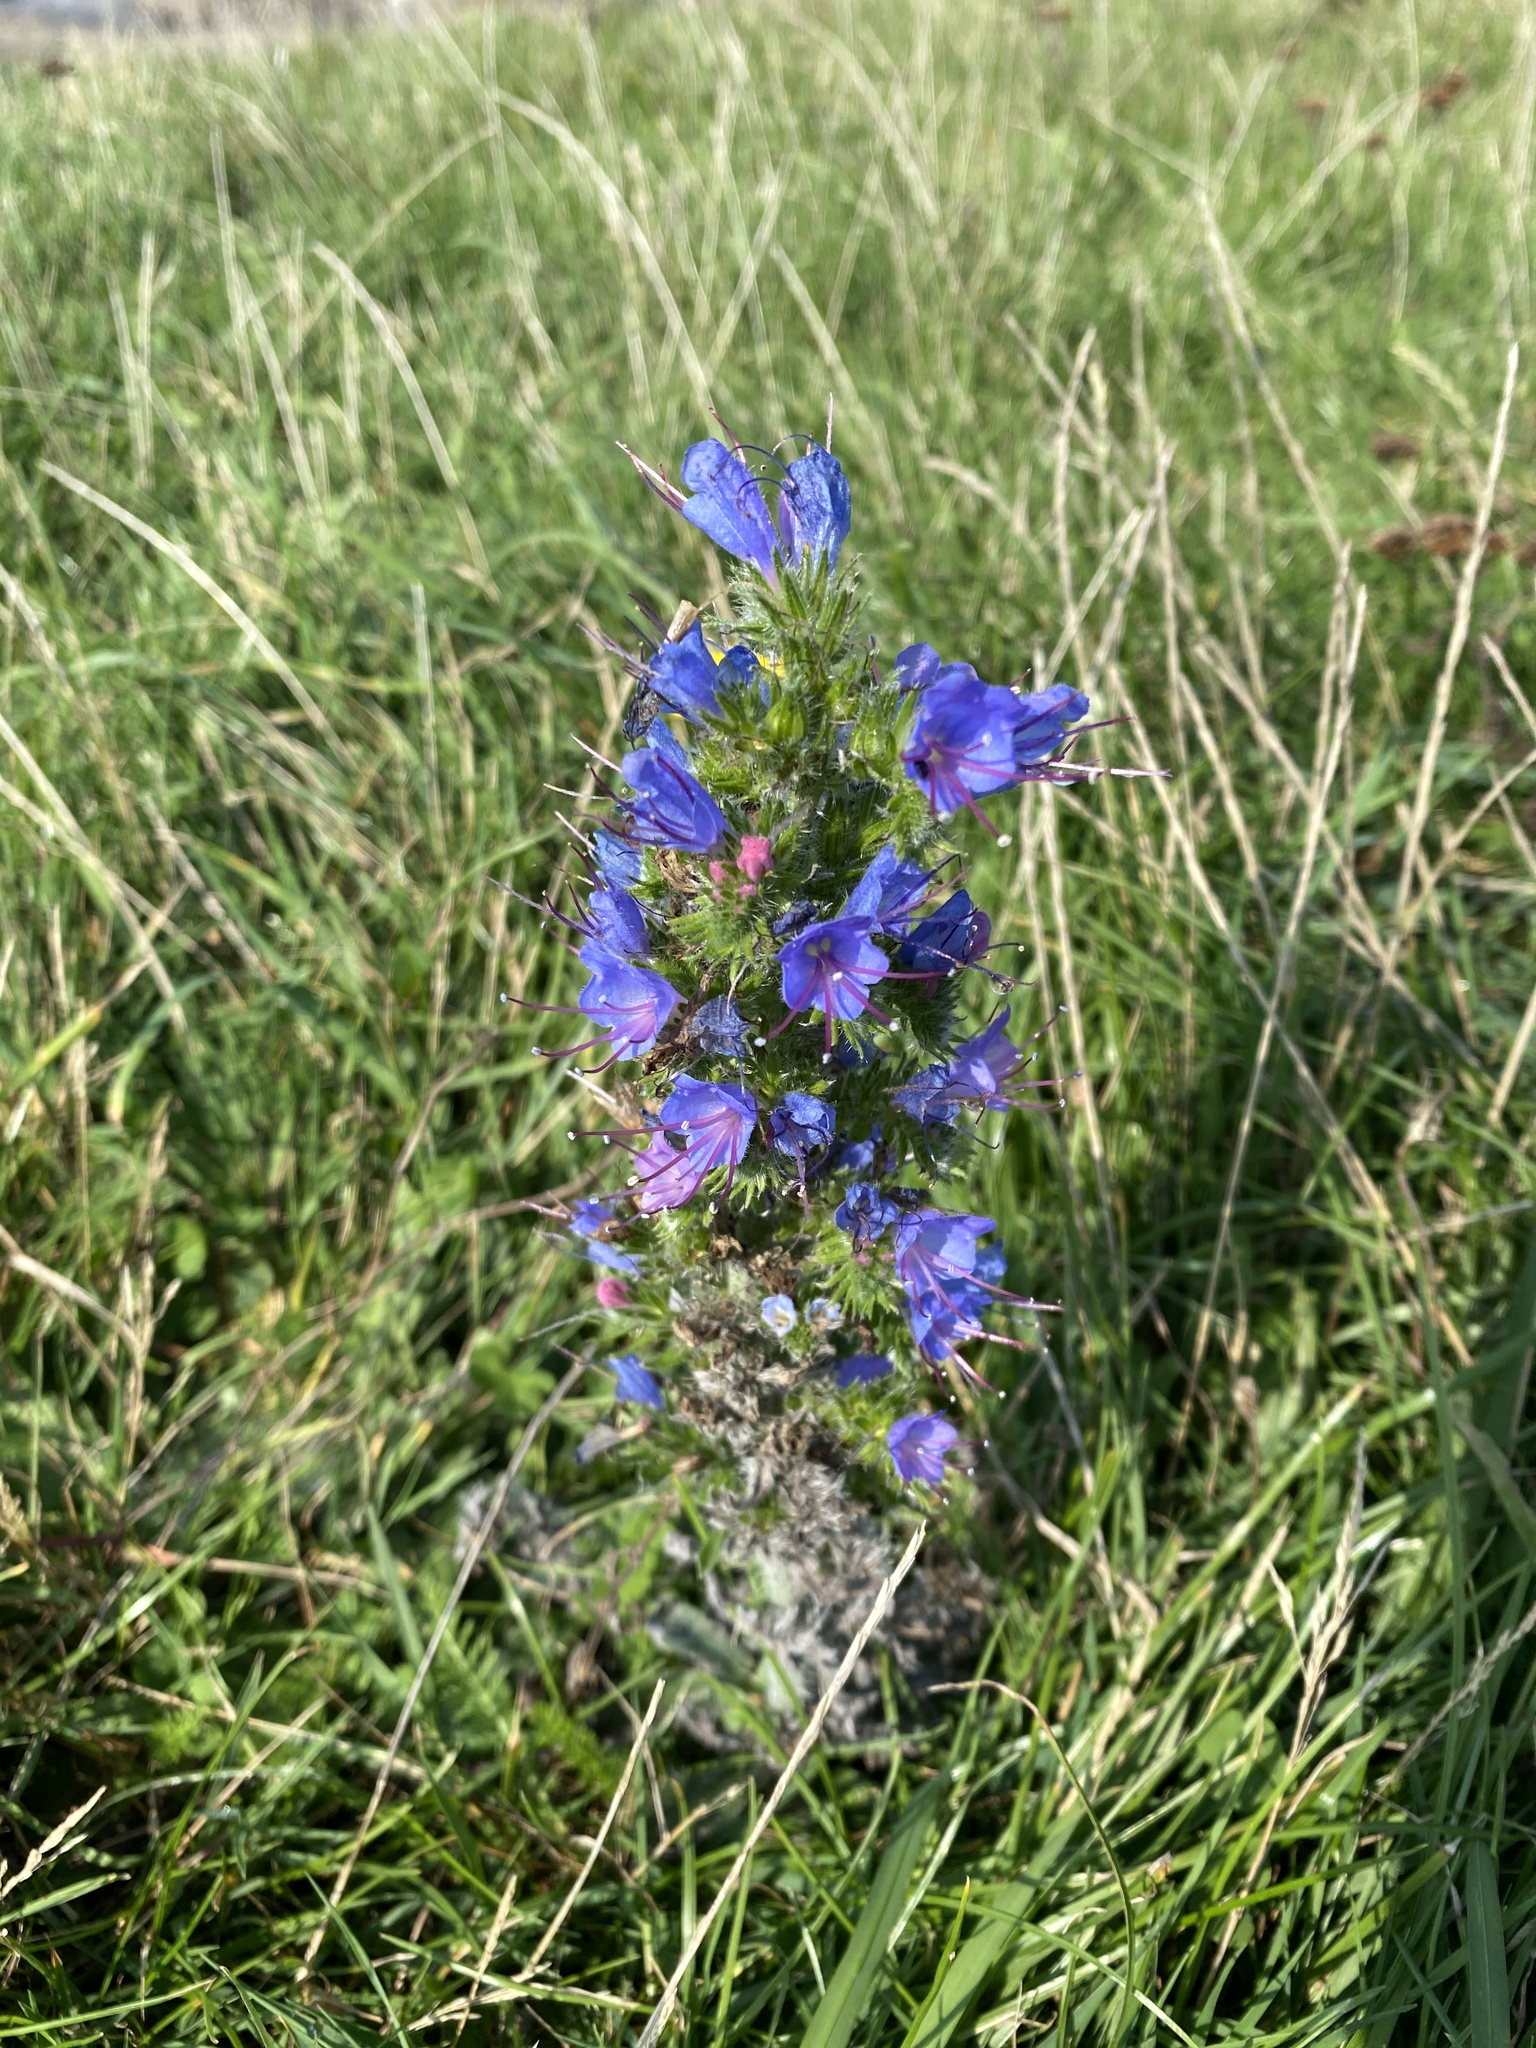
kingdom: Plantae
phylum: Tracheophyta
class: Magnoliopsida
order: Boraginales
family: Boraginaceae
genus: Echium
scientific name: Echium vulgare
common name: Common viper's bugloss
